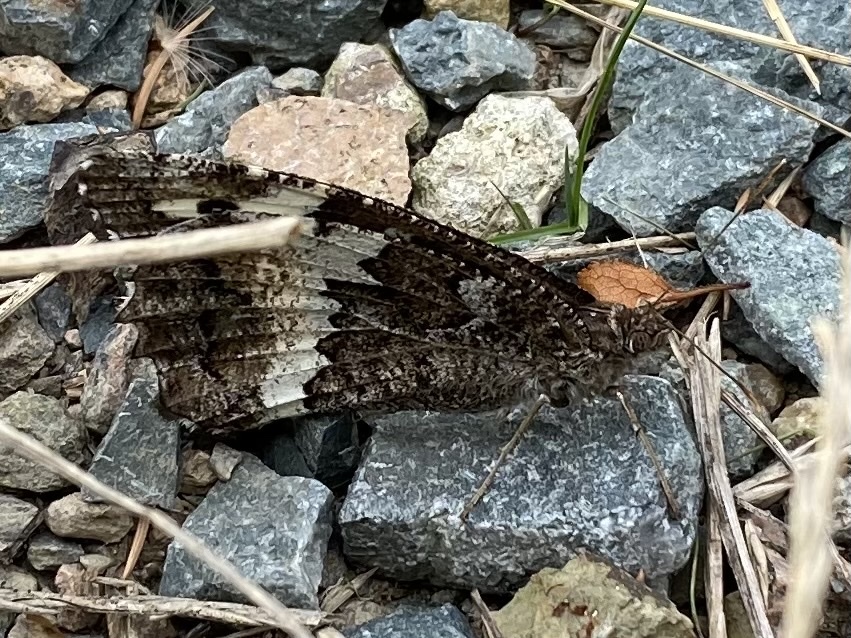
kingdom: Animalia
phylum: Arthropoda
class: Insecta
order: Lepidoptera
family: Lycaenidae
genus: Loweia
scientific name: Loweia tityrus
